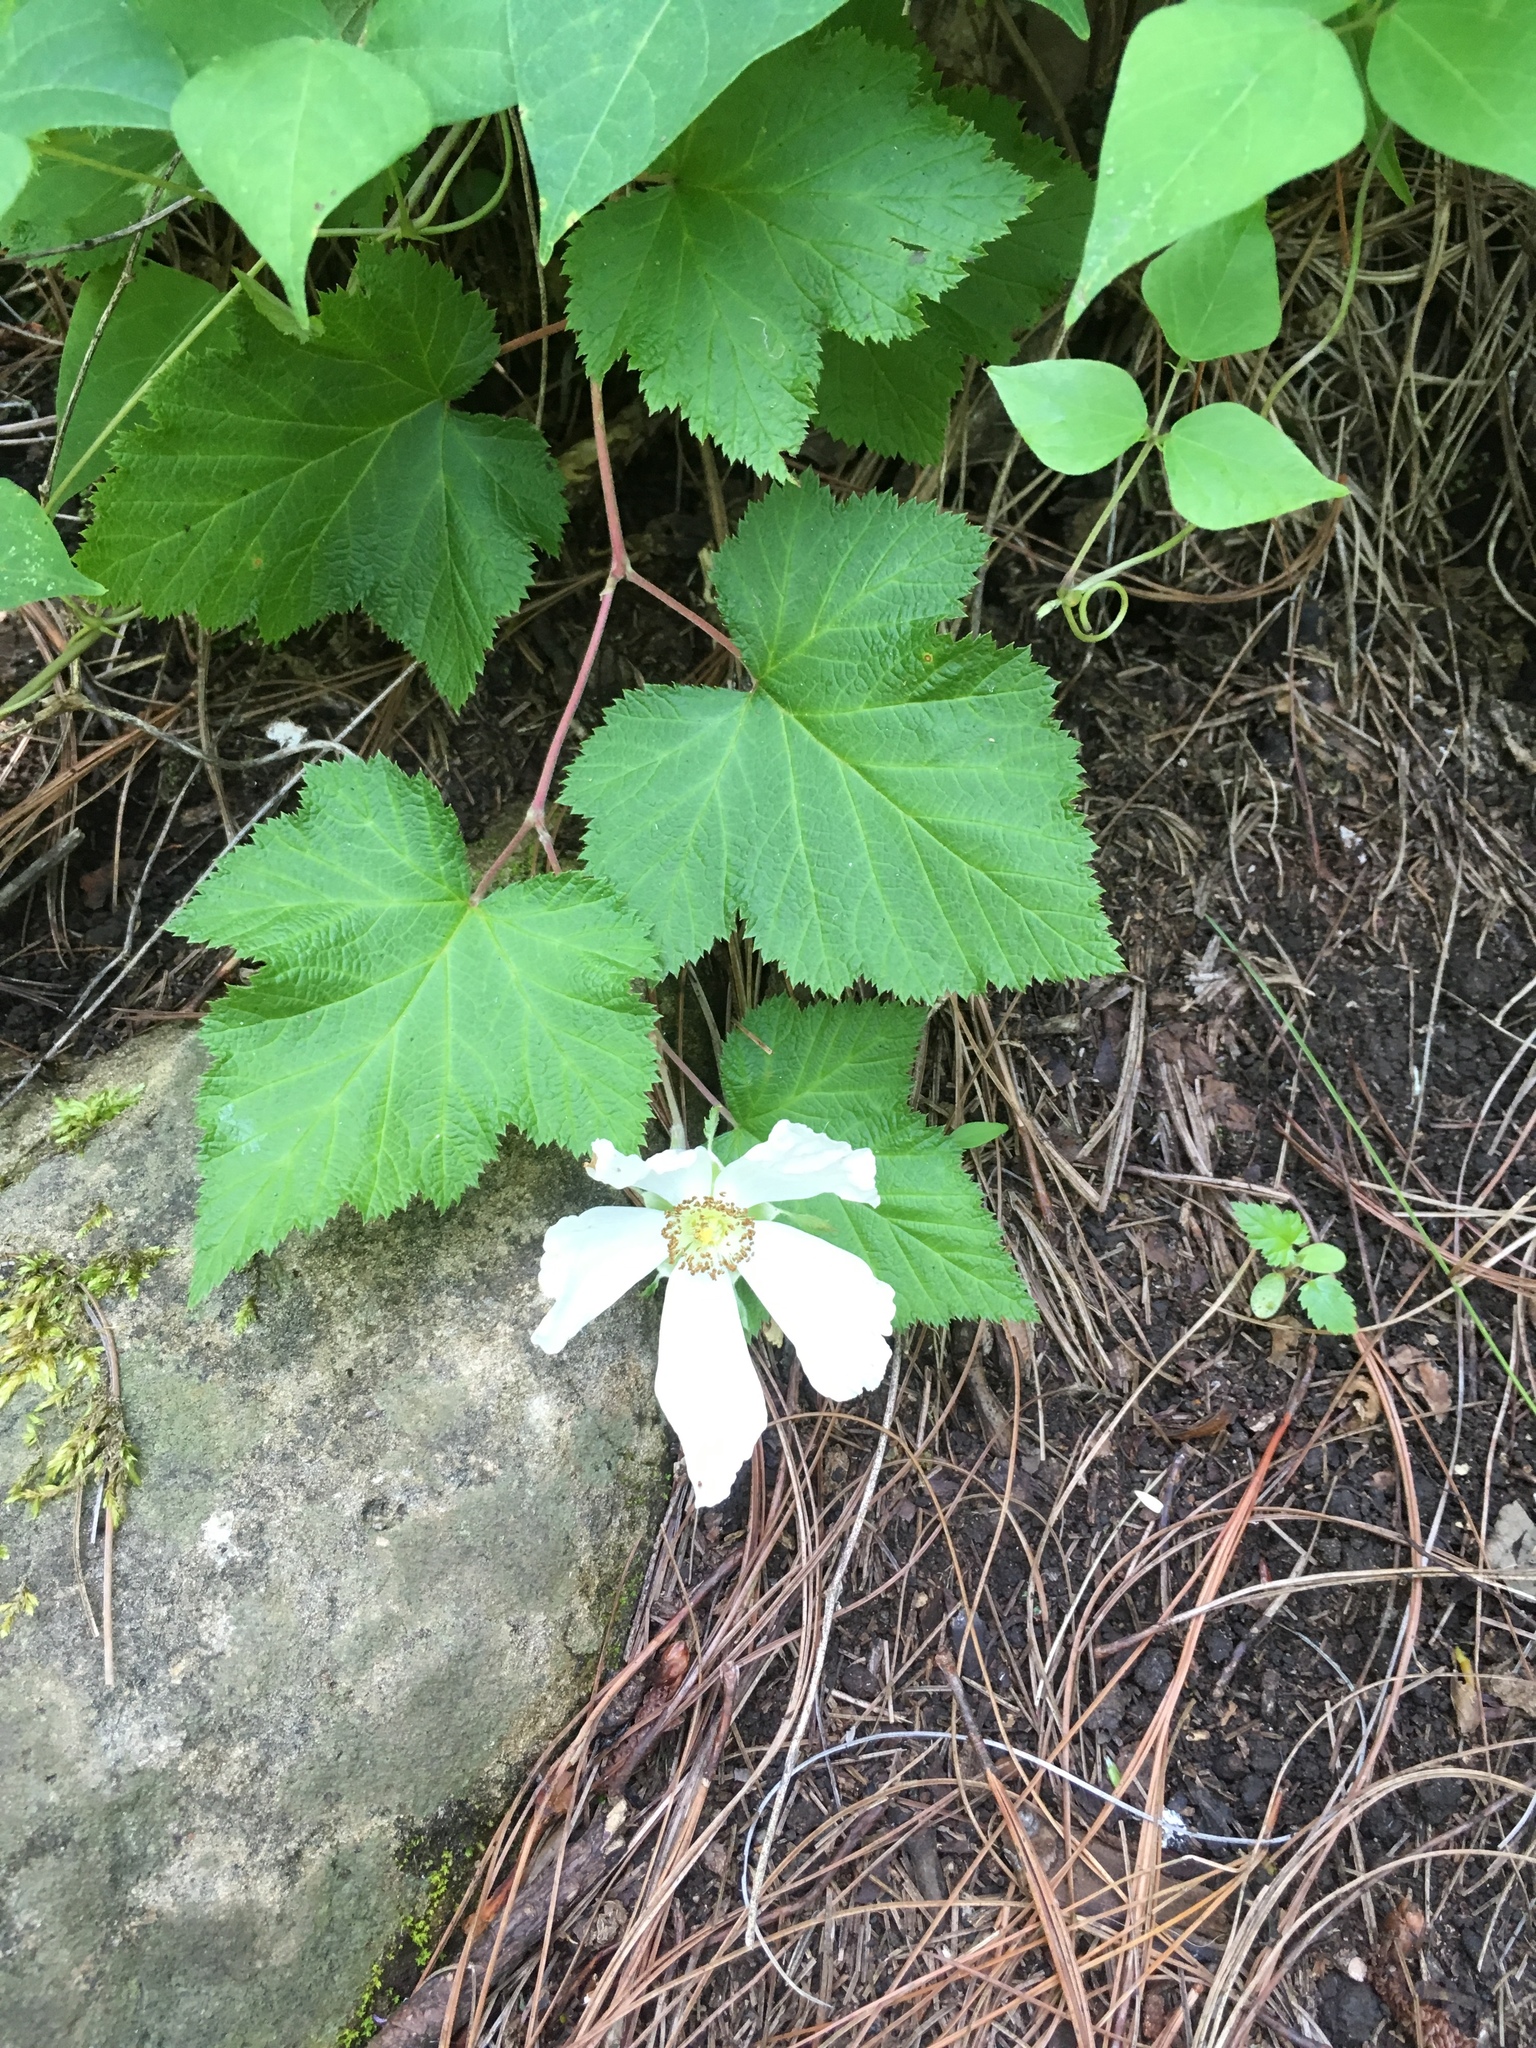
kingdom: Plantae
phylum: Tracheophyta
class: Magnoliopsida
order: Rosales
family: Rosaceae
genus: Rubus
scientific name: Rubus trilobus
